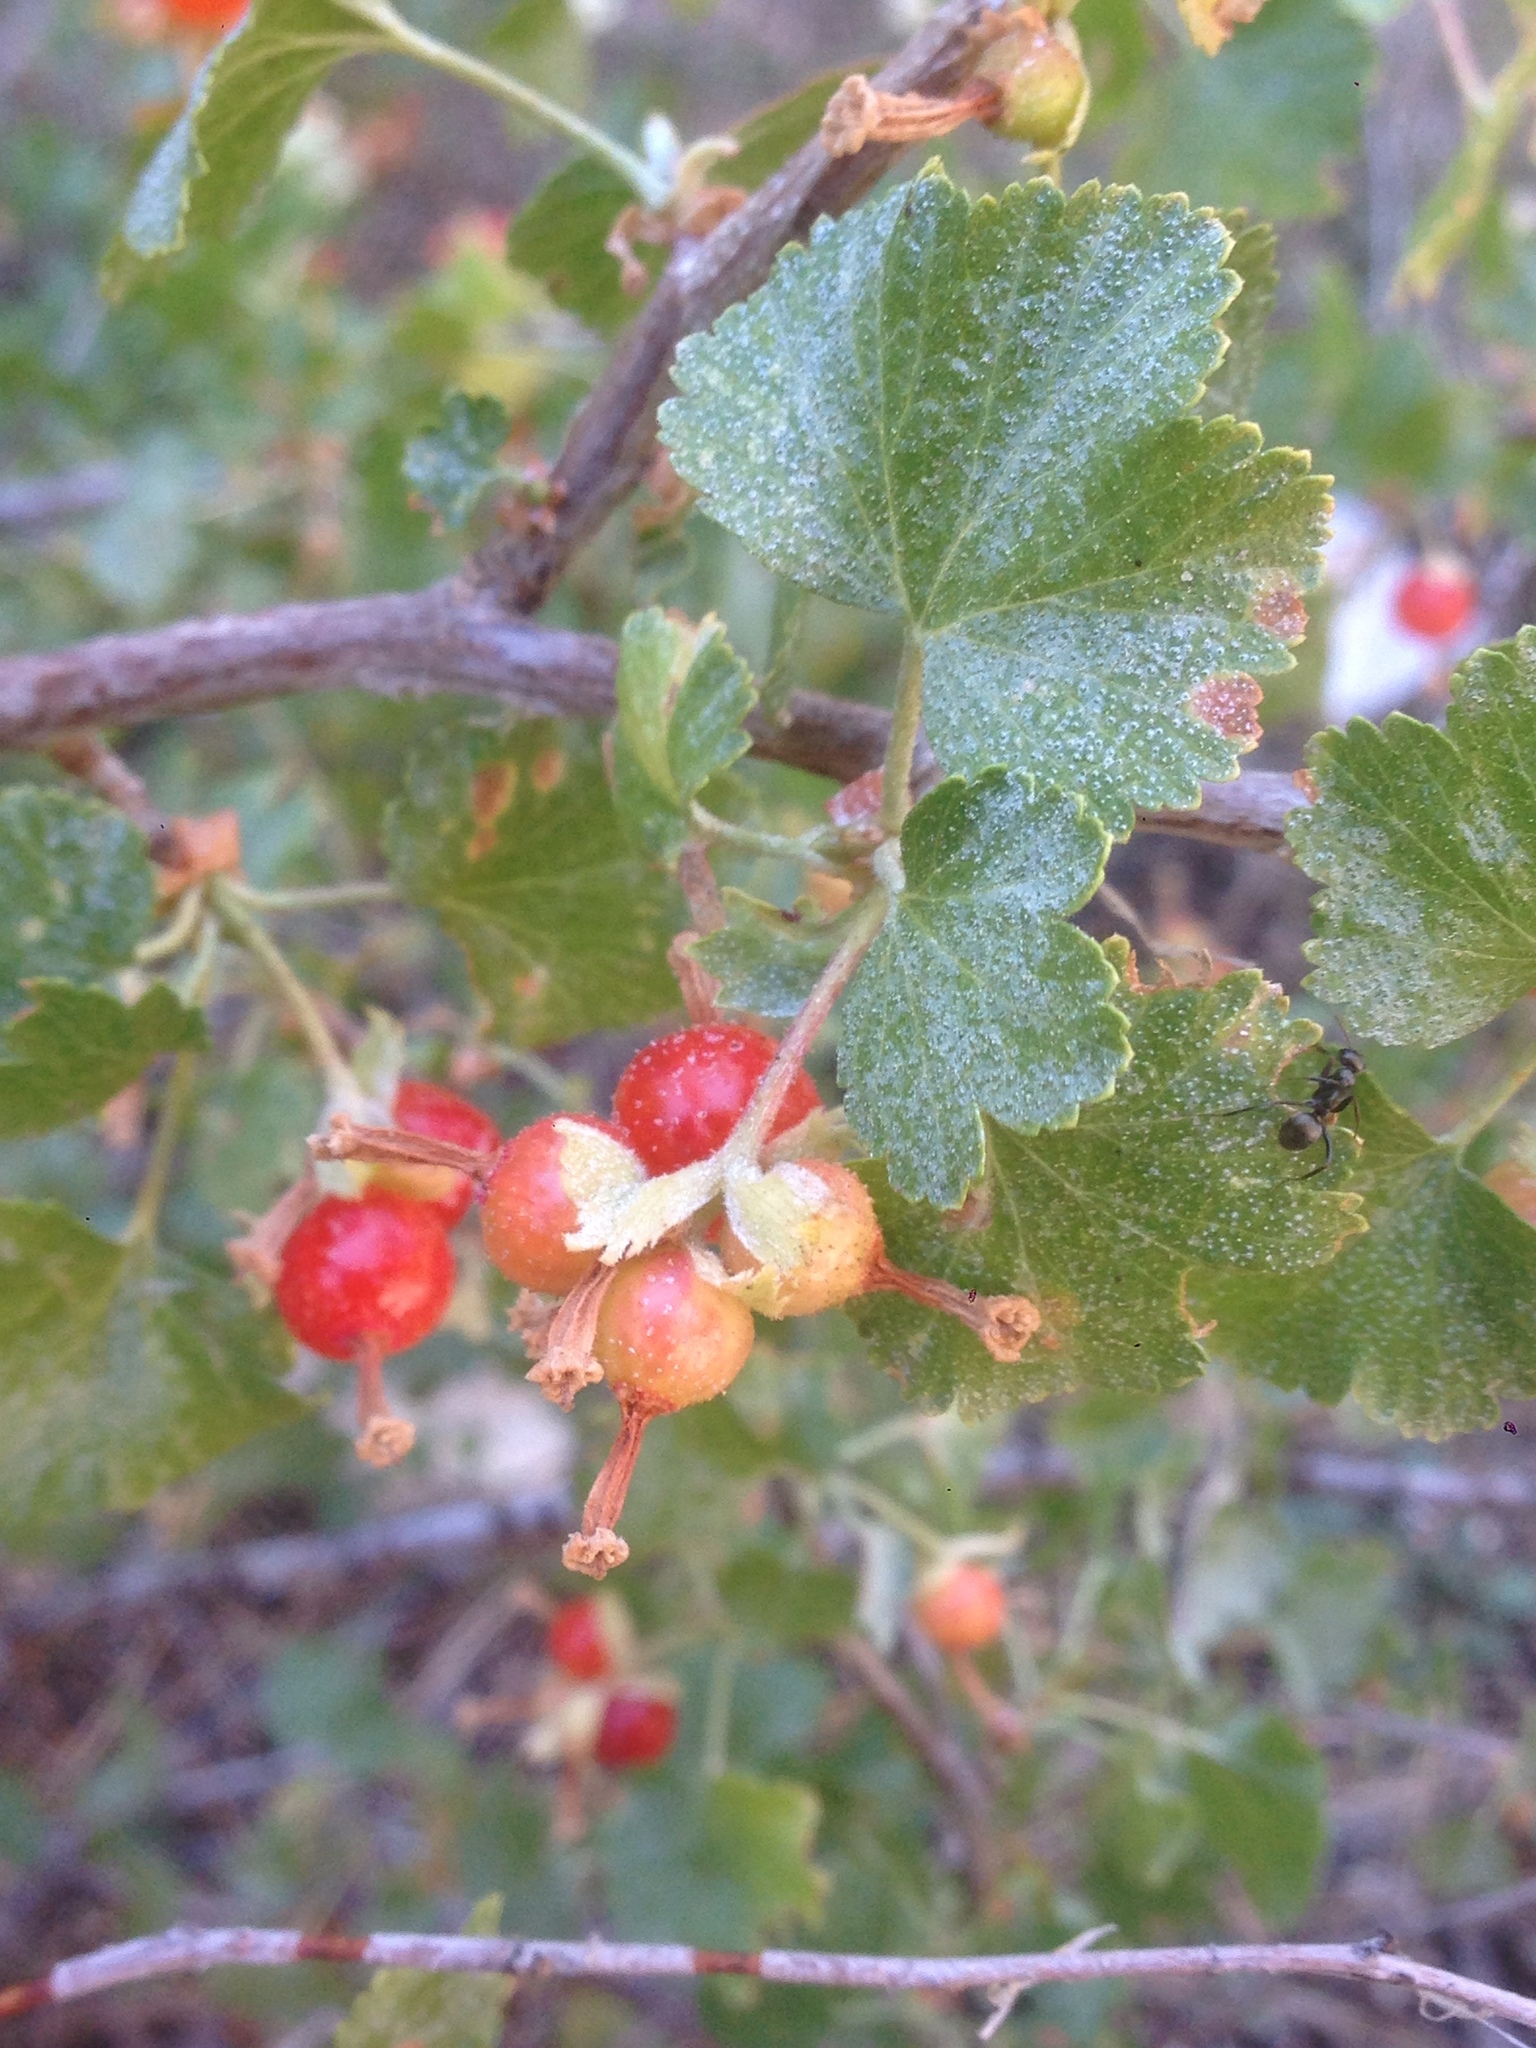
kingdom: Plantae
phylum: Tracheophyta
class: Magnoliopsida
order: Saxifragales
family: Grossulariaceae
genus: Ribes
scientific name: Ribes cereum
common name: Wax currant
